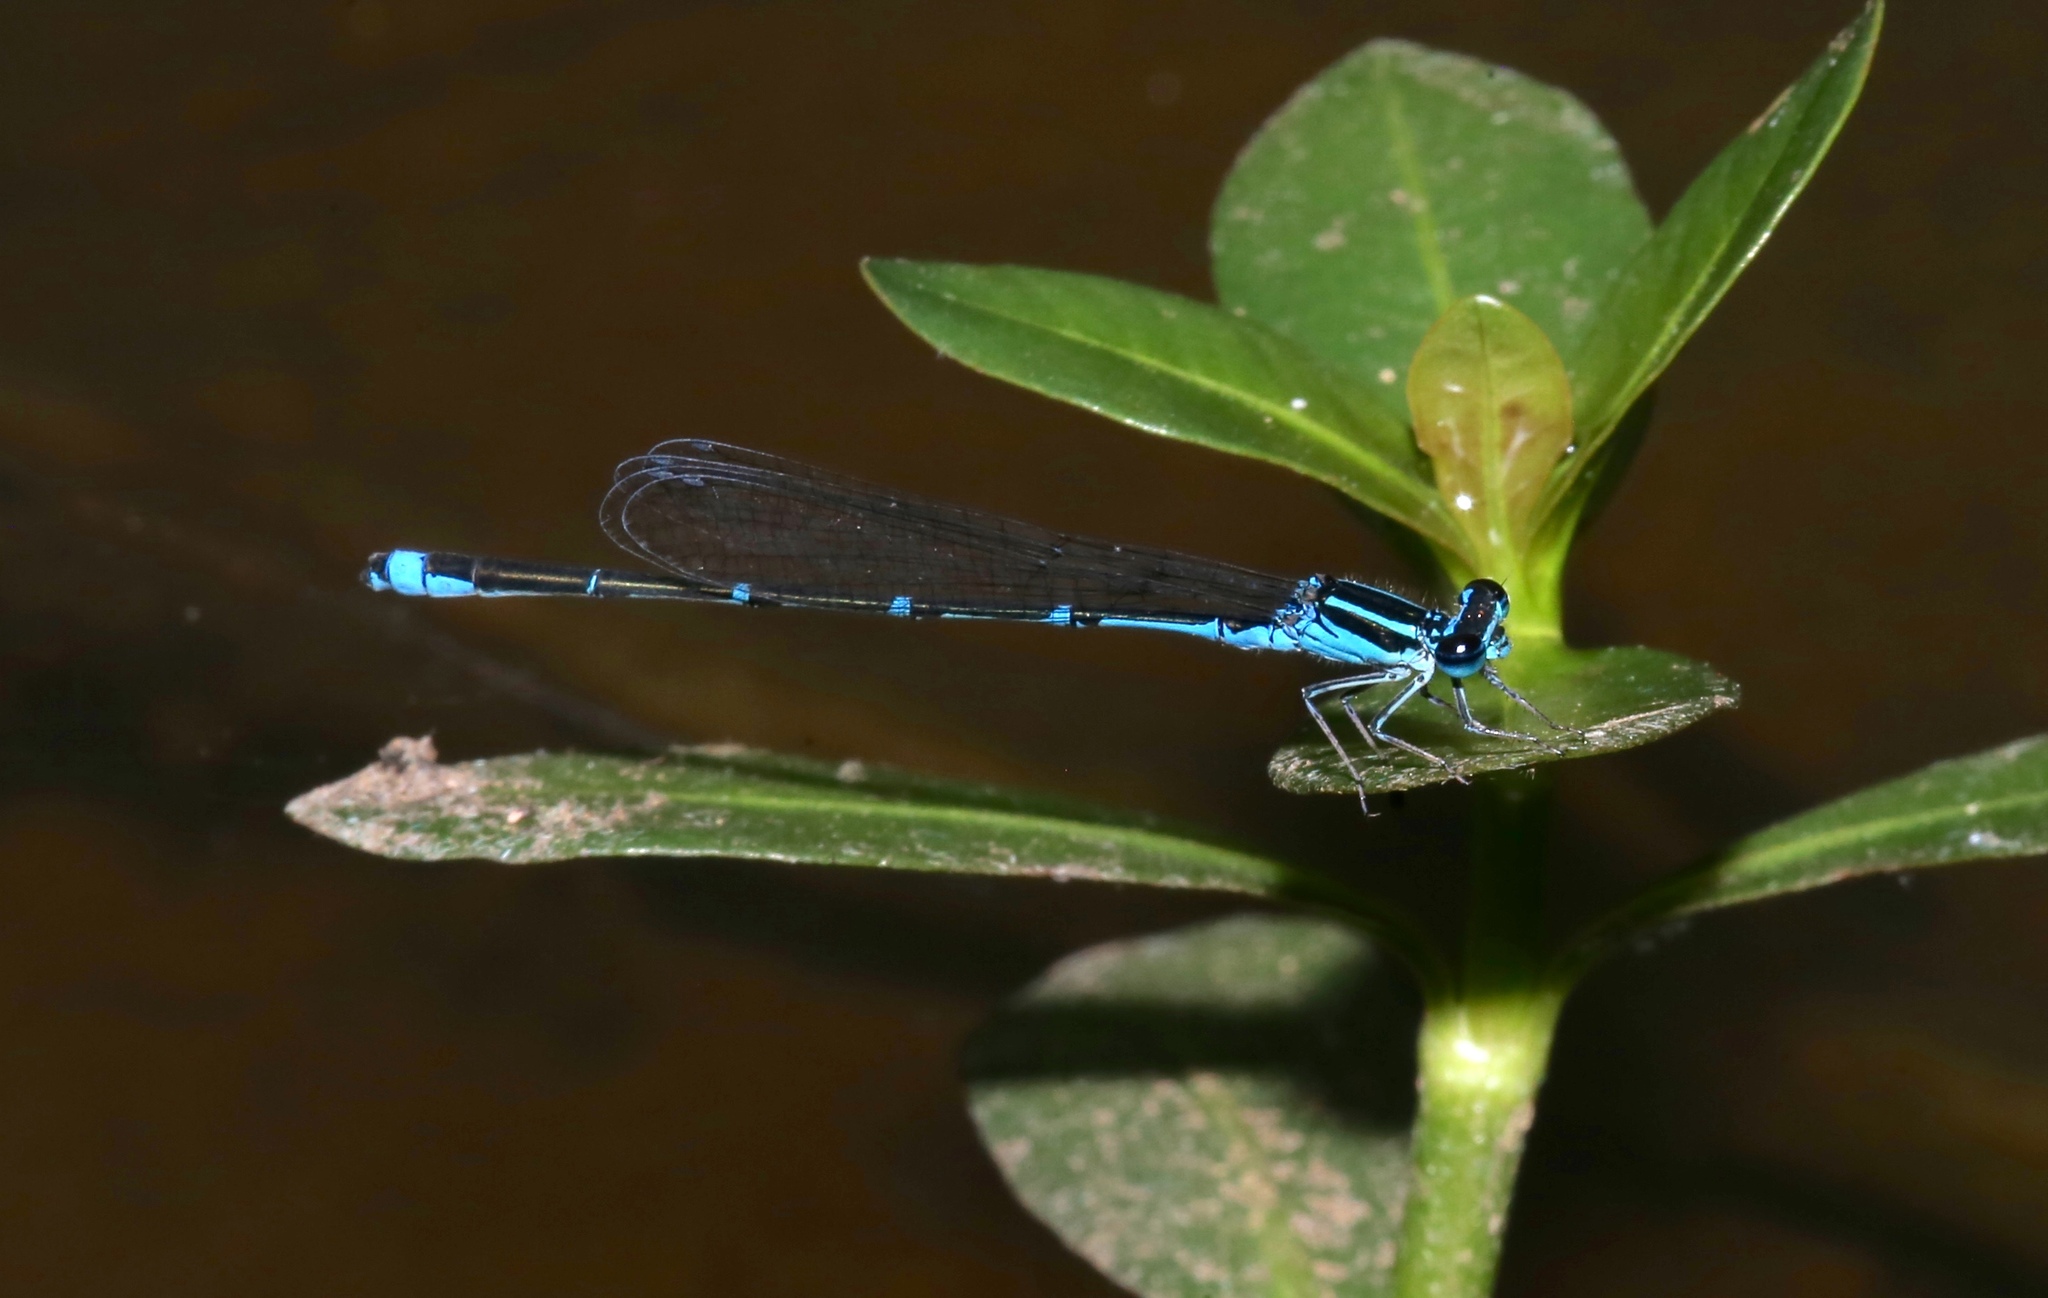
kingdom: Animalia
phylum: Arthropoda
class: Insecta
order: Odonata
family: Coenagrionidae
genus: Enallagma
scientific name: Enallagma exsulans
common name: Stream bluet
